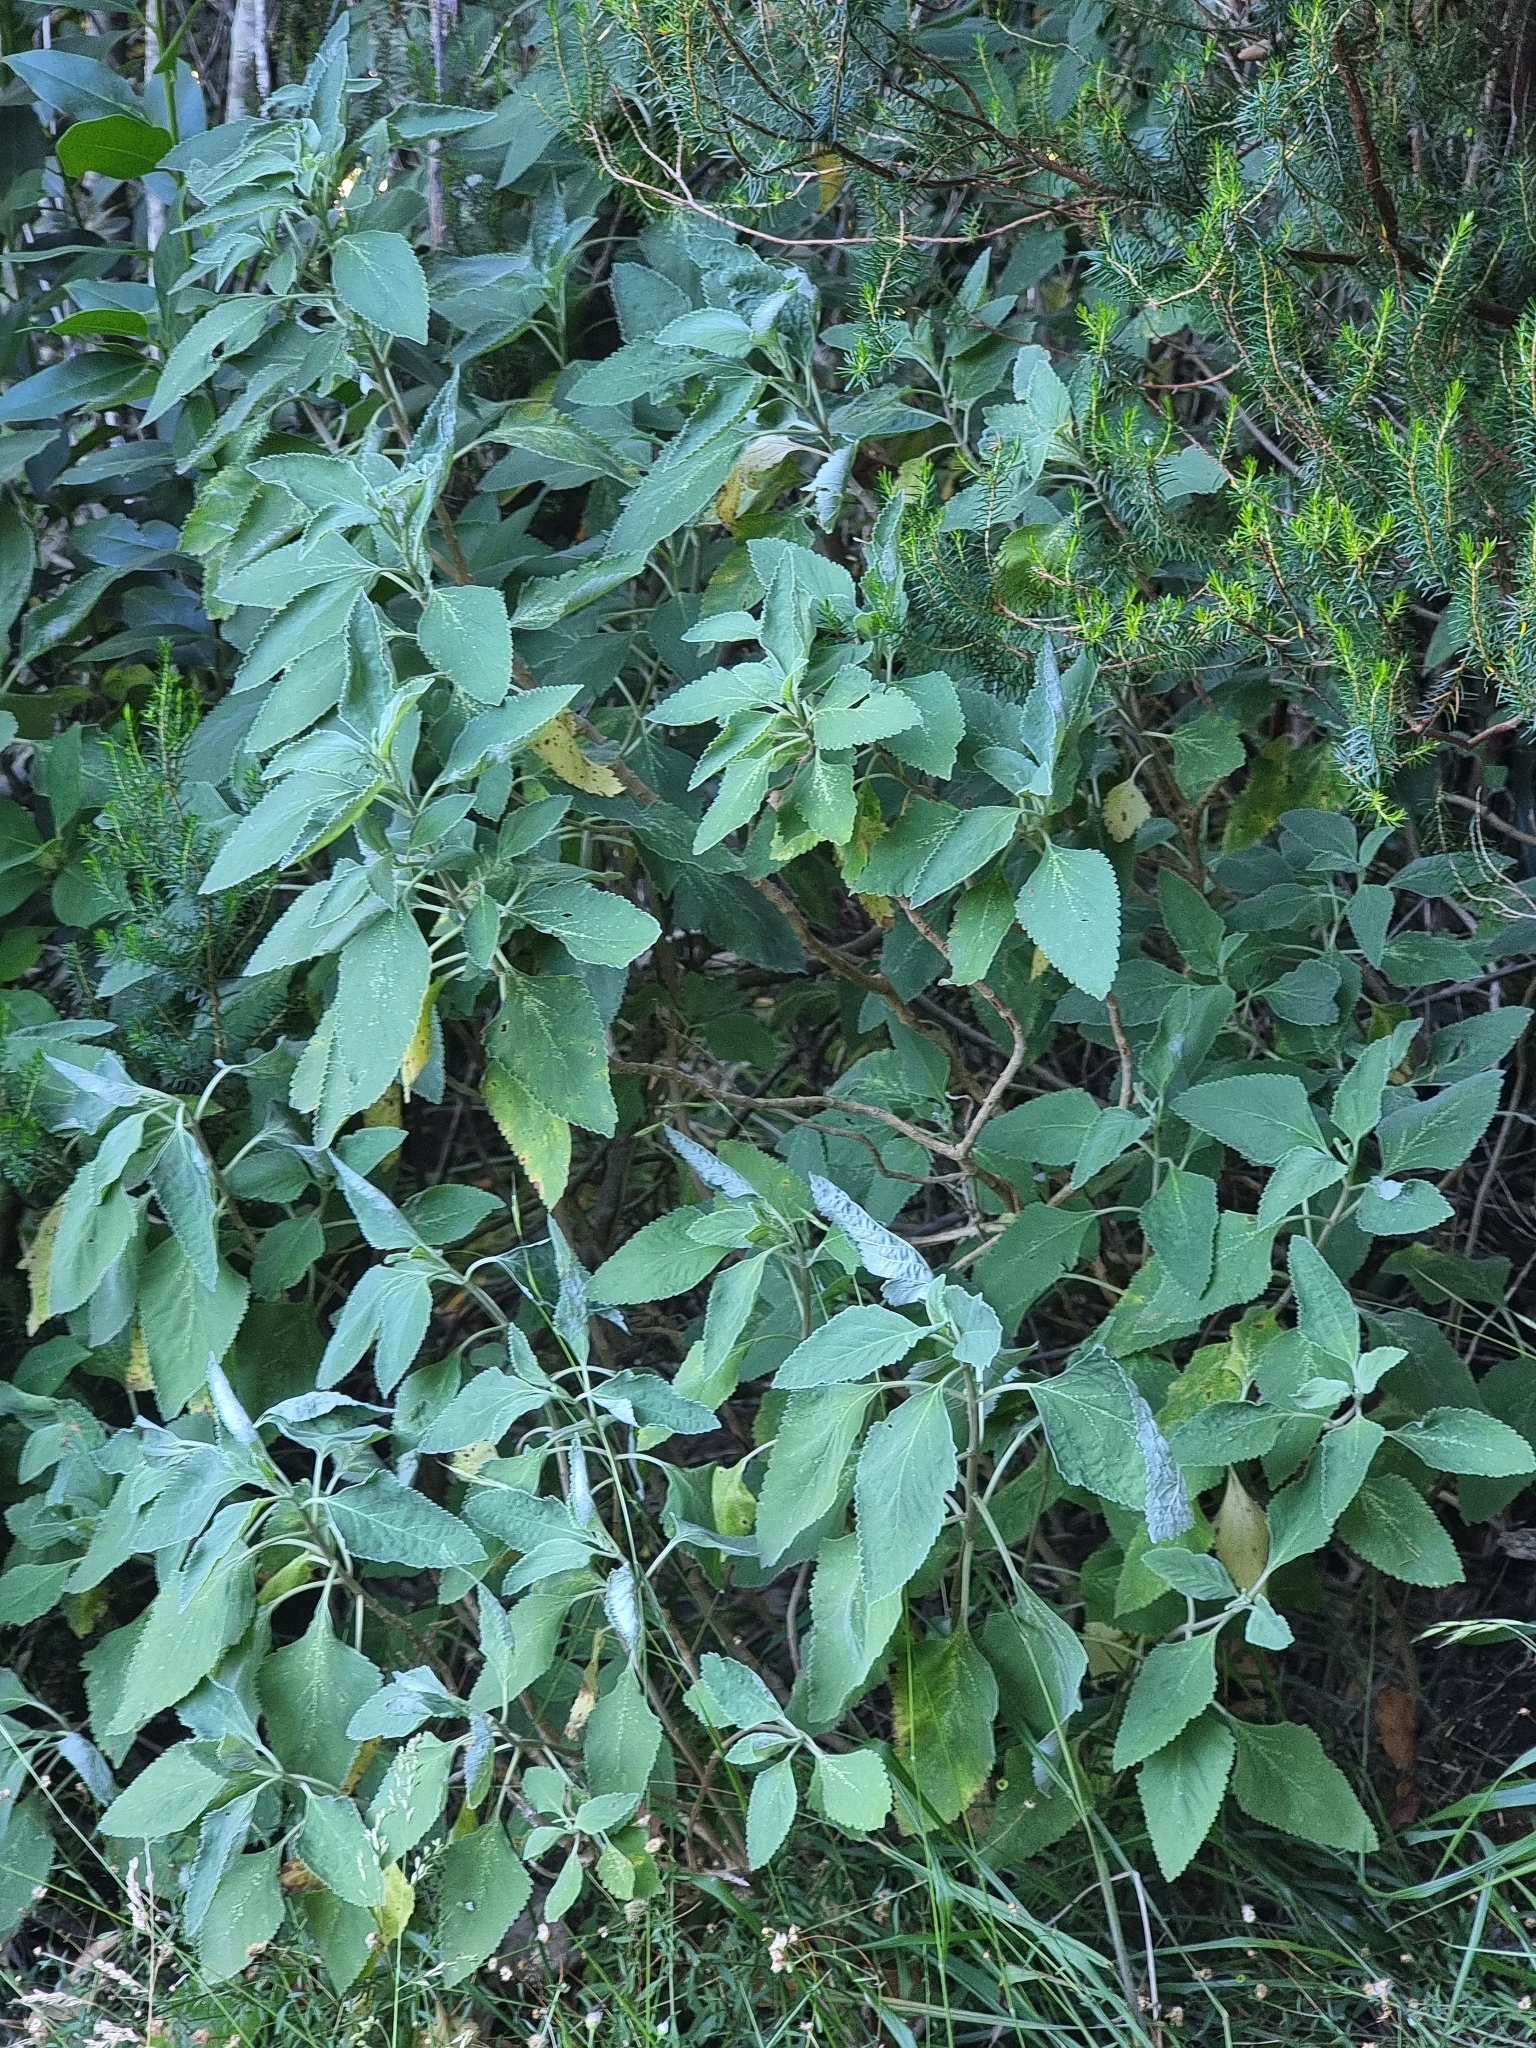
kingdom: Plantae
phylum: Tracheophyta
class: Magnoliopsida
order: Lamiales
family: Lamiaceae
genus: Teucrium
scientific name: Teucrium betonicum
